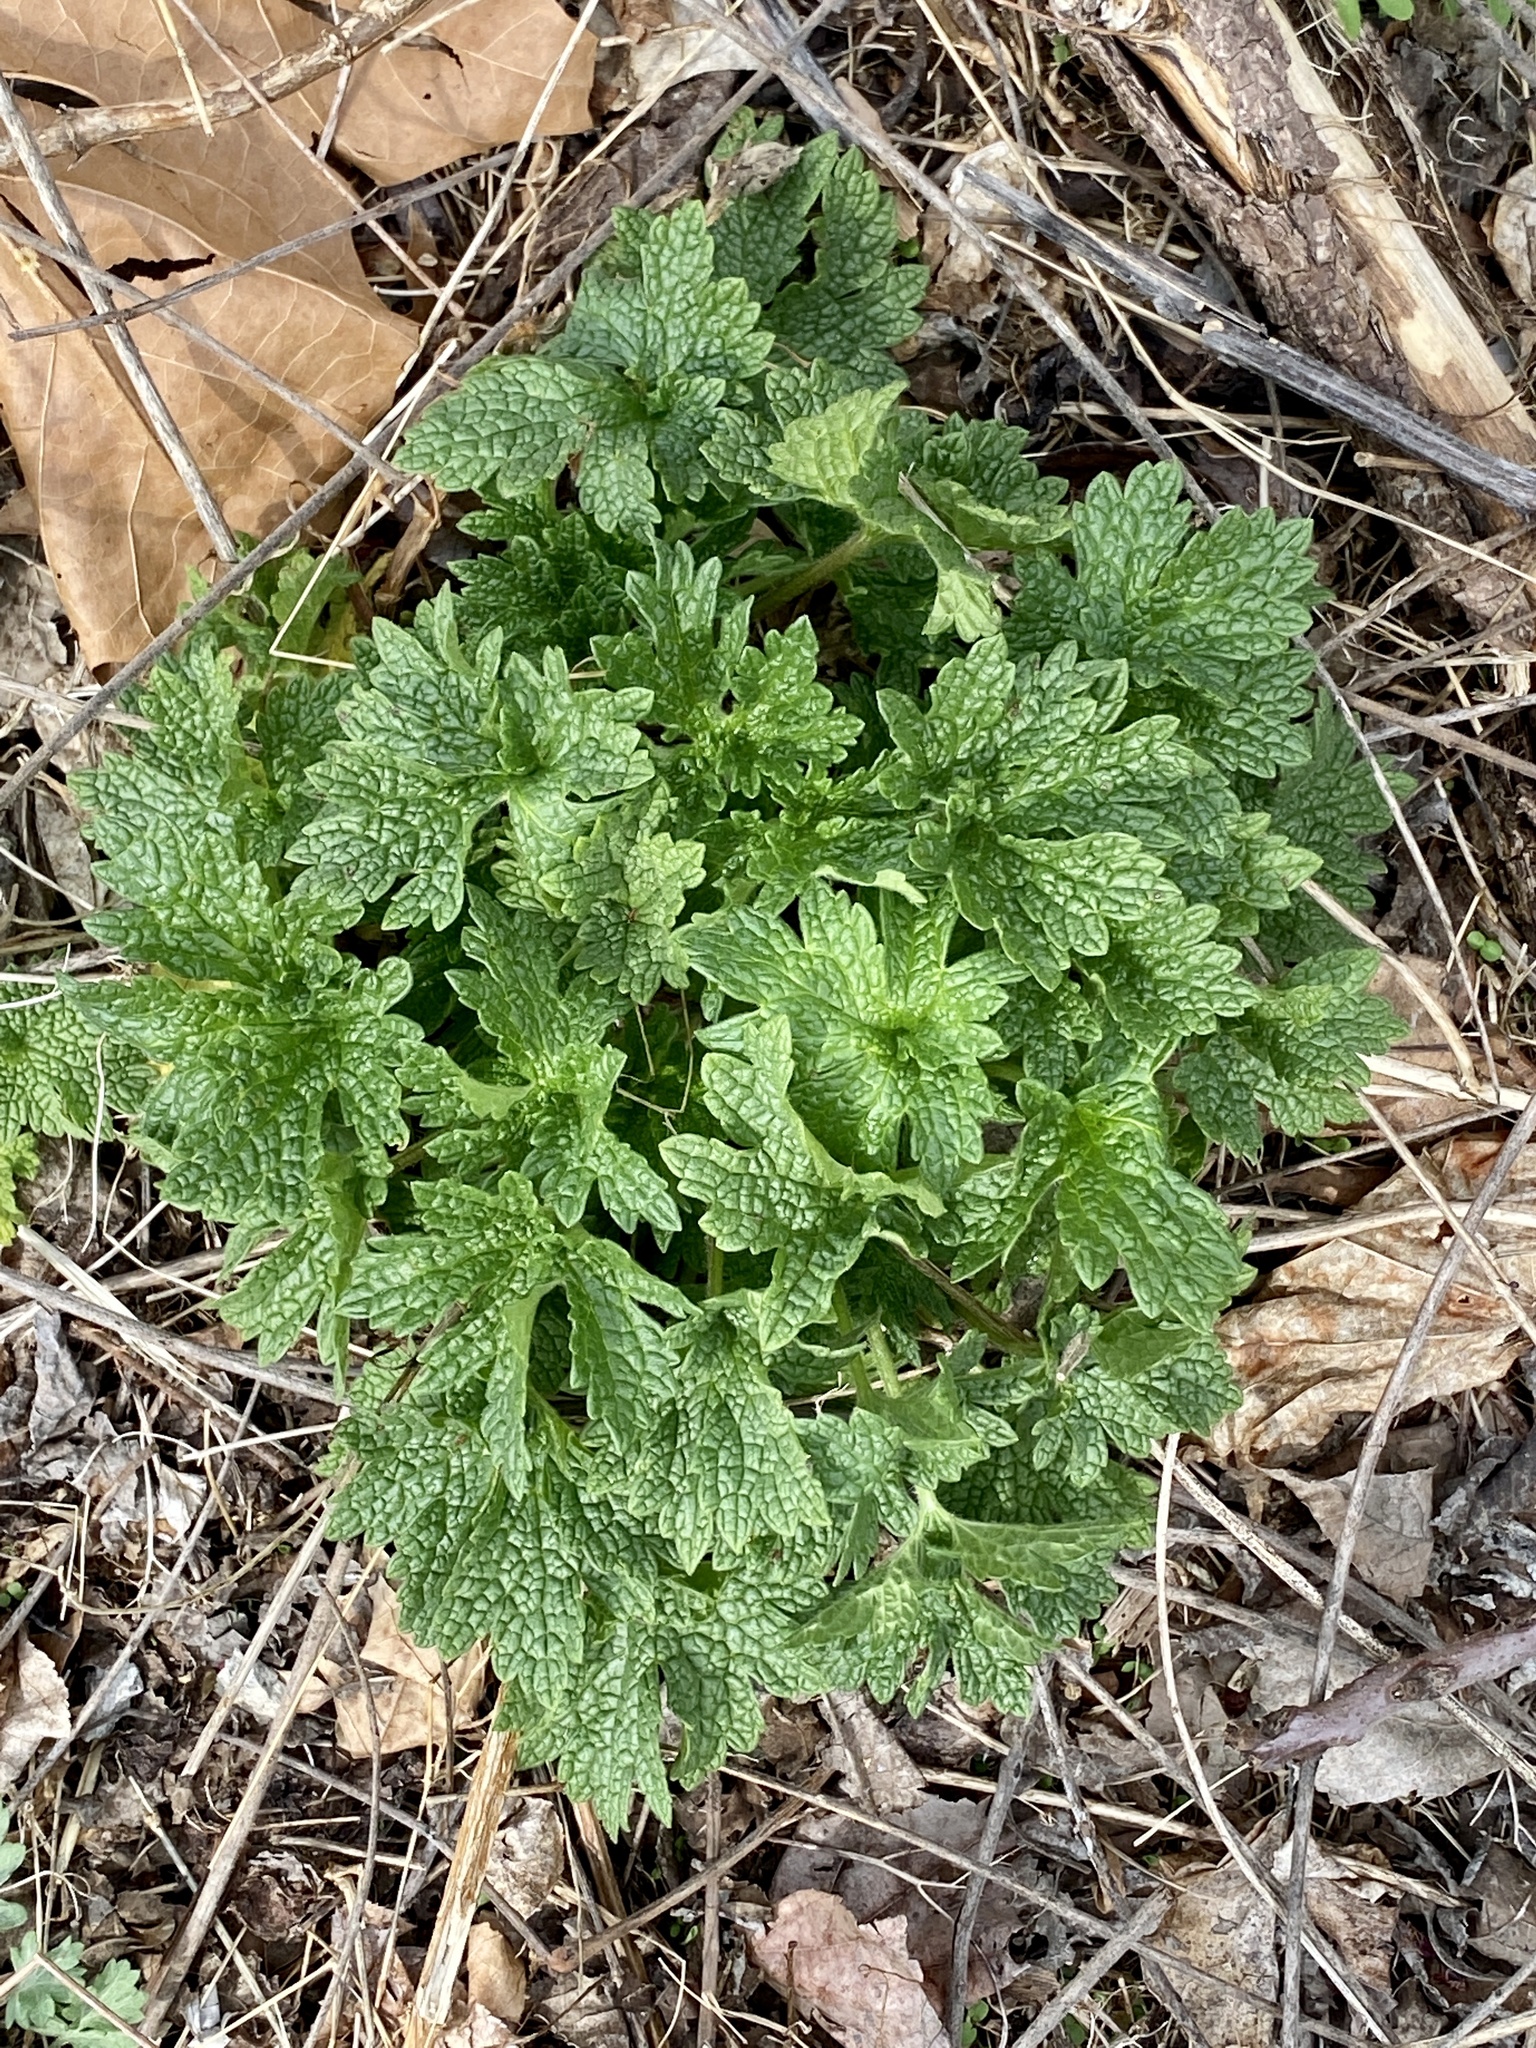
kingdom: Plantae
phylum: Tracheophyta
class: Magnoliopsida
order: Lamiales
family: Lamiaceae
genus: Leonurus
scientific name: Leonurus cardiaca
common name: Motherwort
